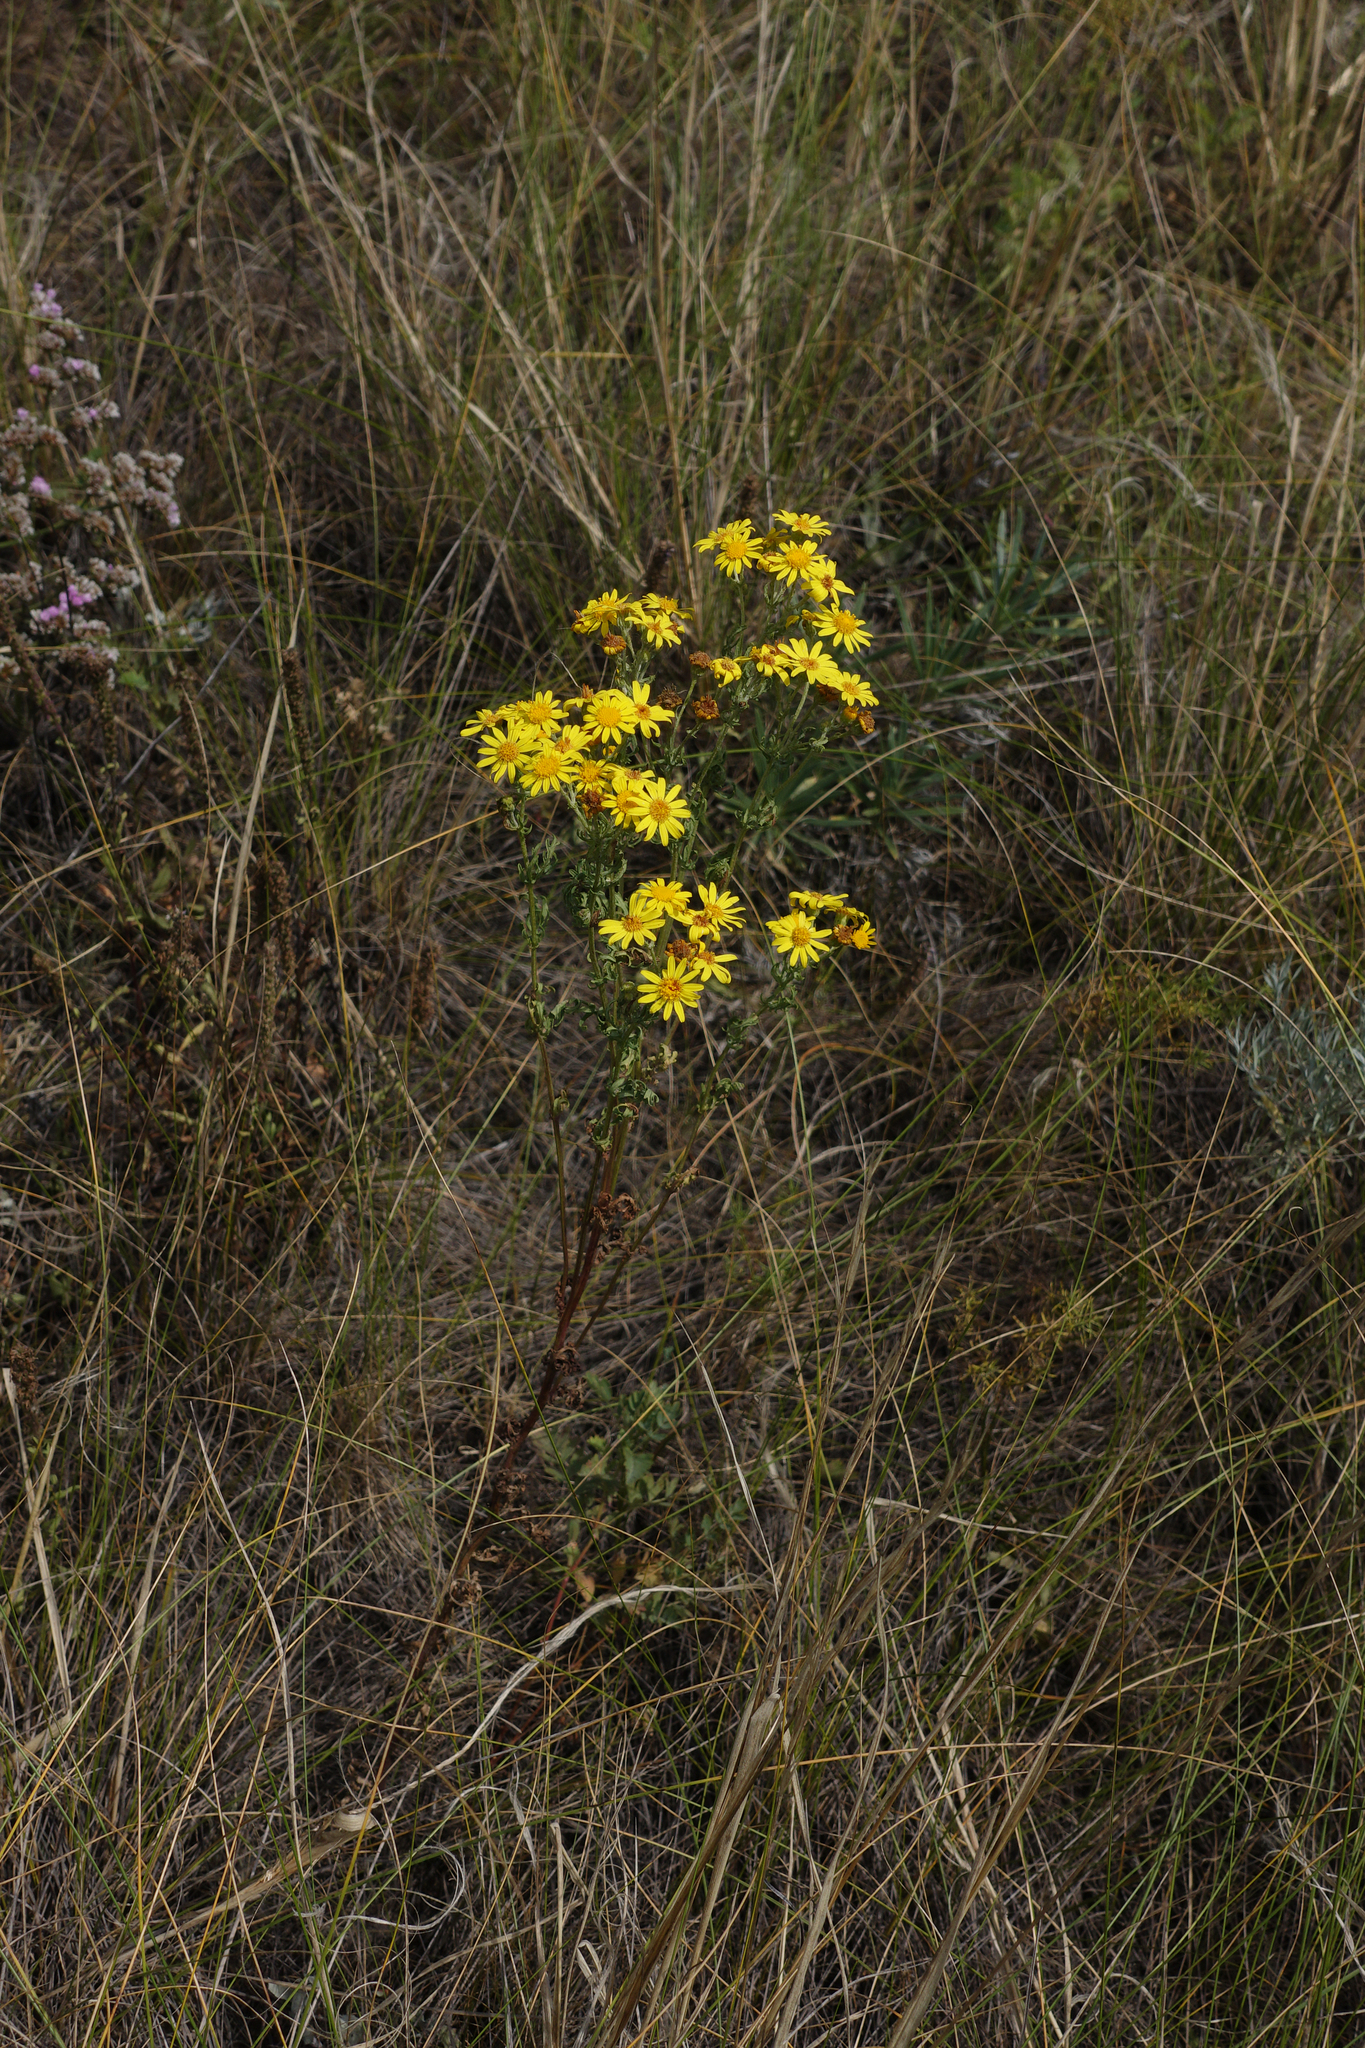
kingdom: Plantae
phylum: Tracheophyta
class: Magnoliopsida
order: Asterales
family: Asteraceae
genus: Jacobaea
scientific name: Jacobaea vulgaris
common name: Stinking willie
